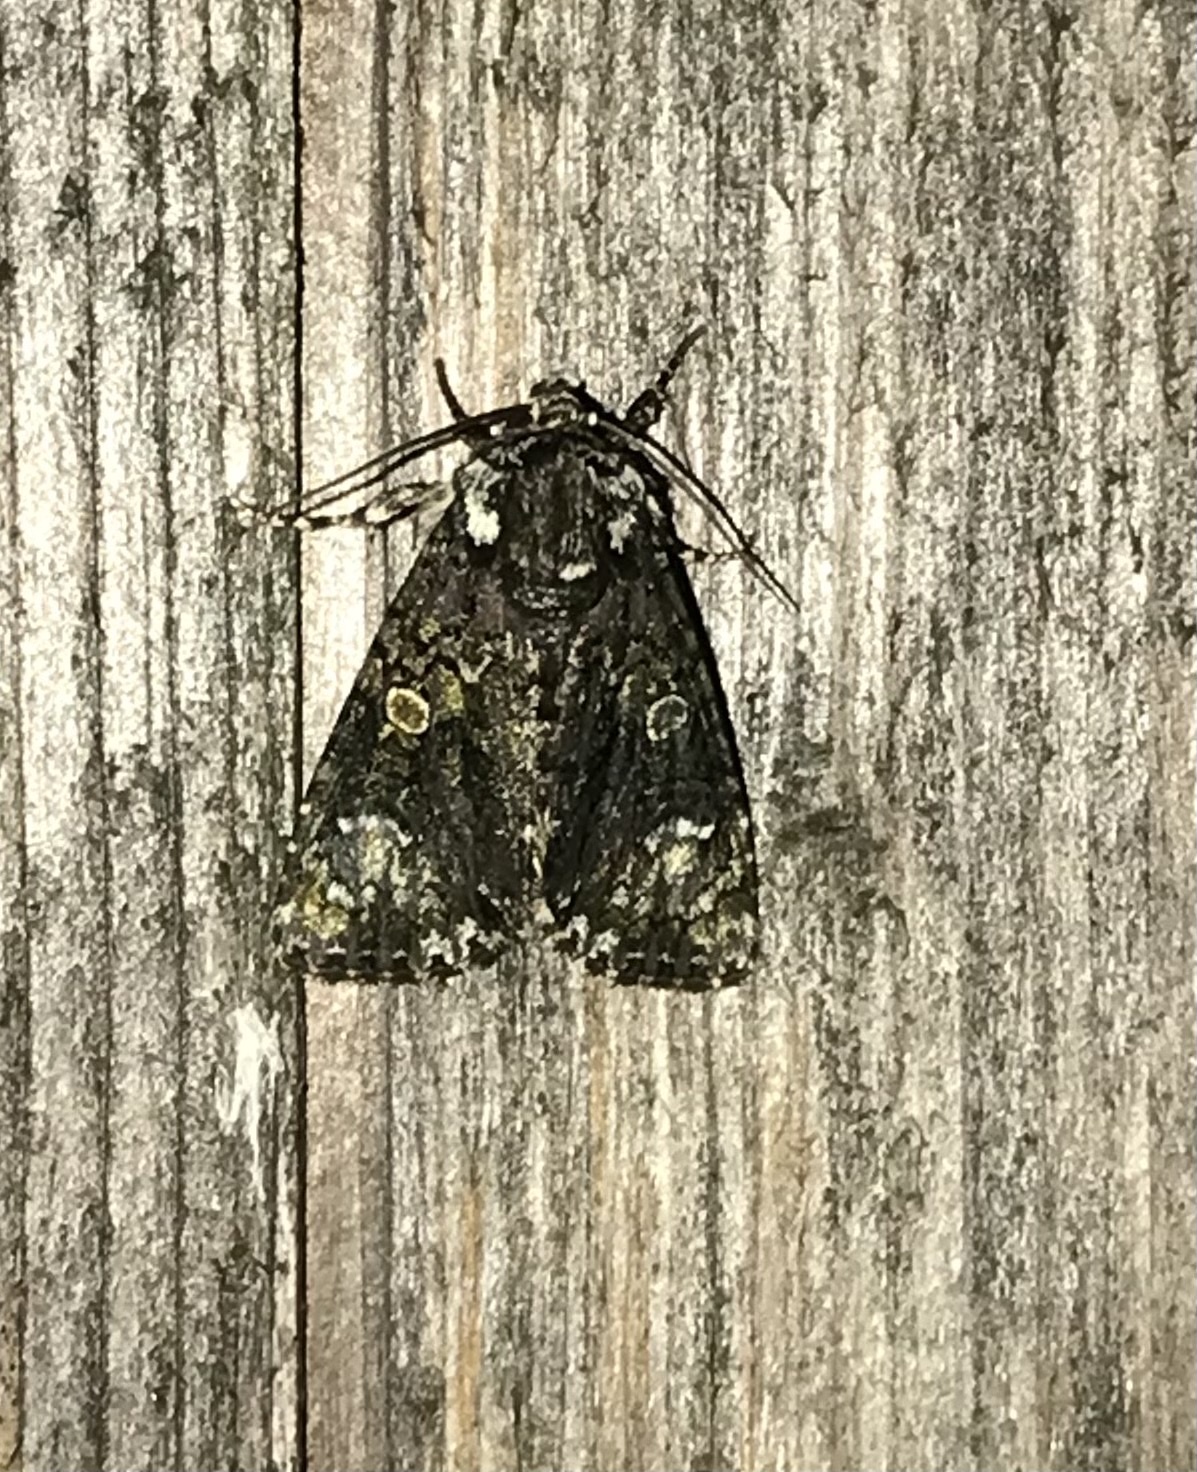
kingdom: Animalia
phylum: Arthropoda
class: Insecta
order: Lepidoptera
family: Noctuidae
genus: Craniophora
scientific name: Craniophora ligustri
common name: Coronet
